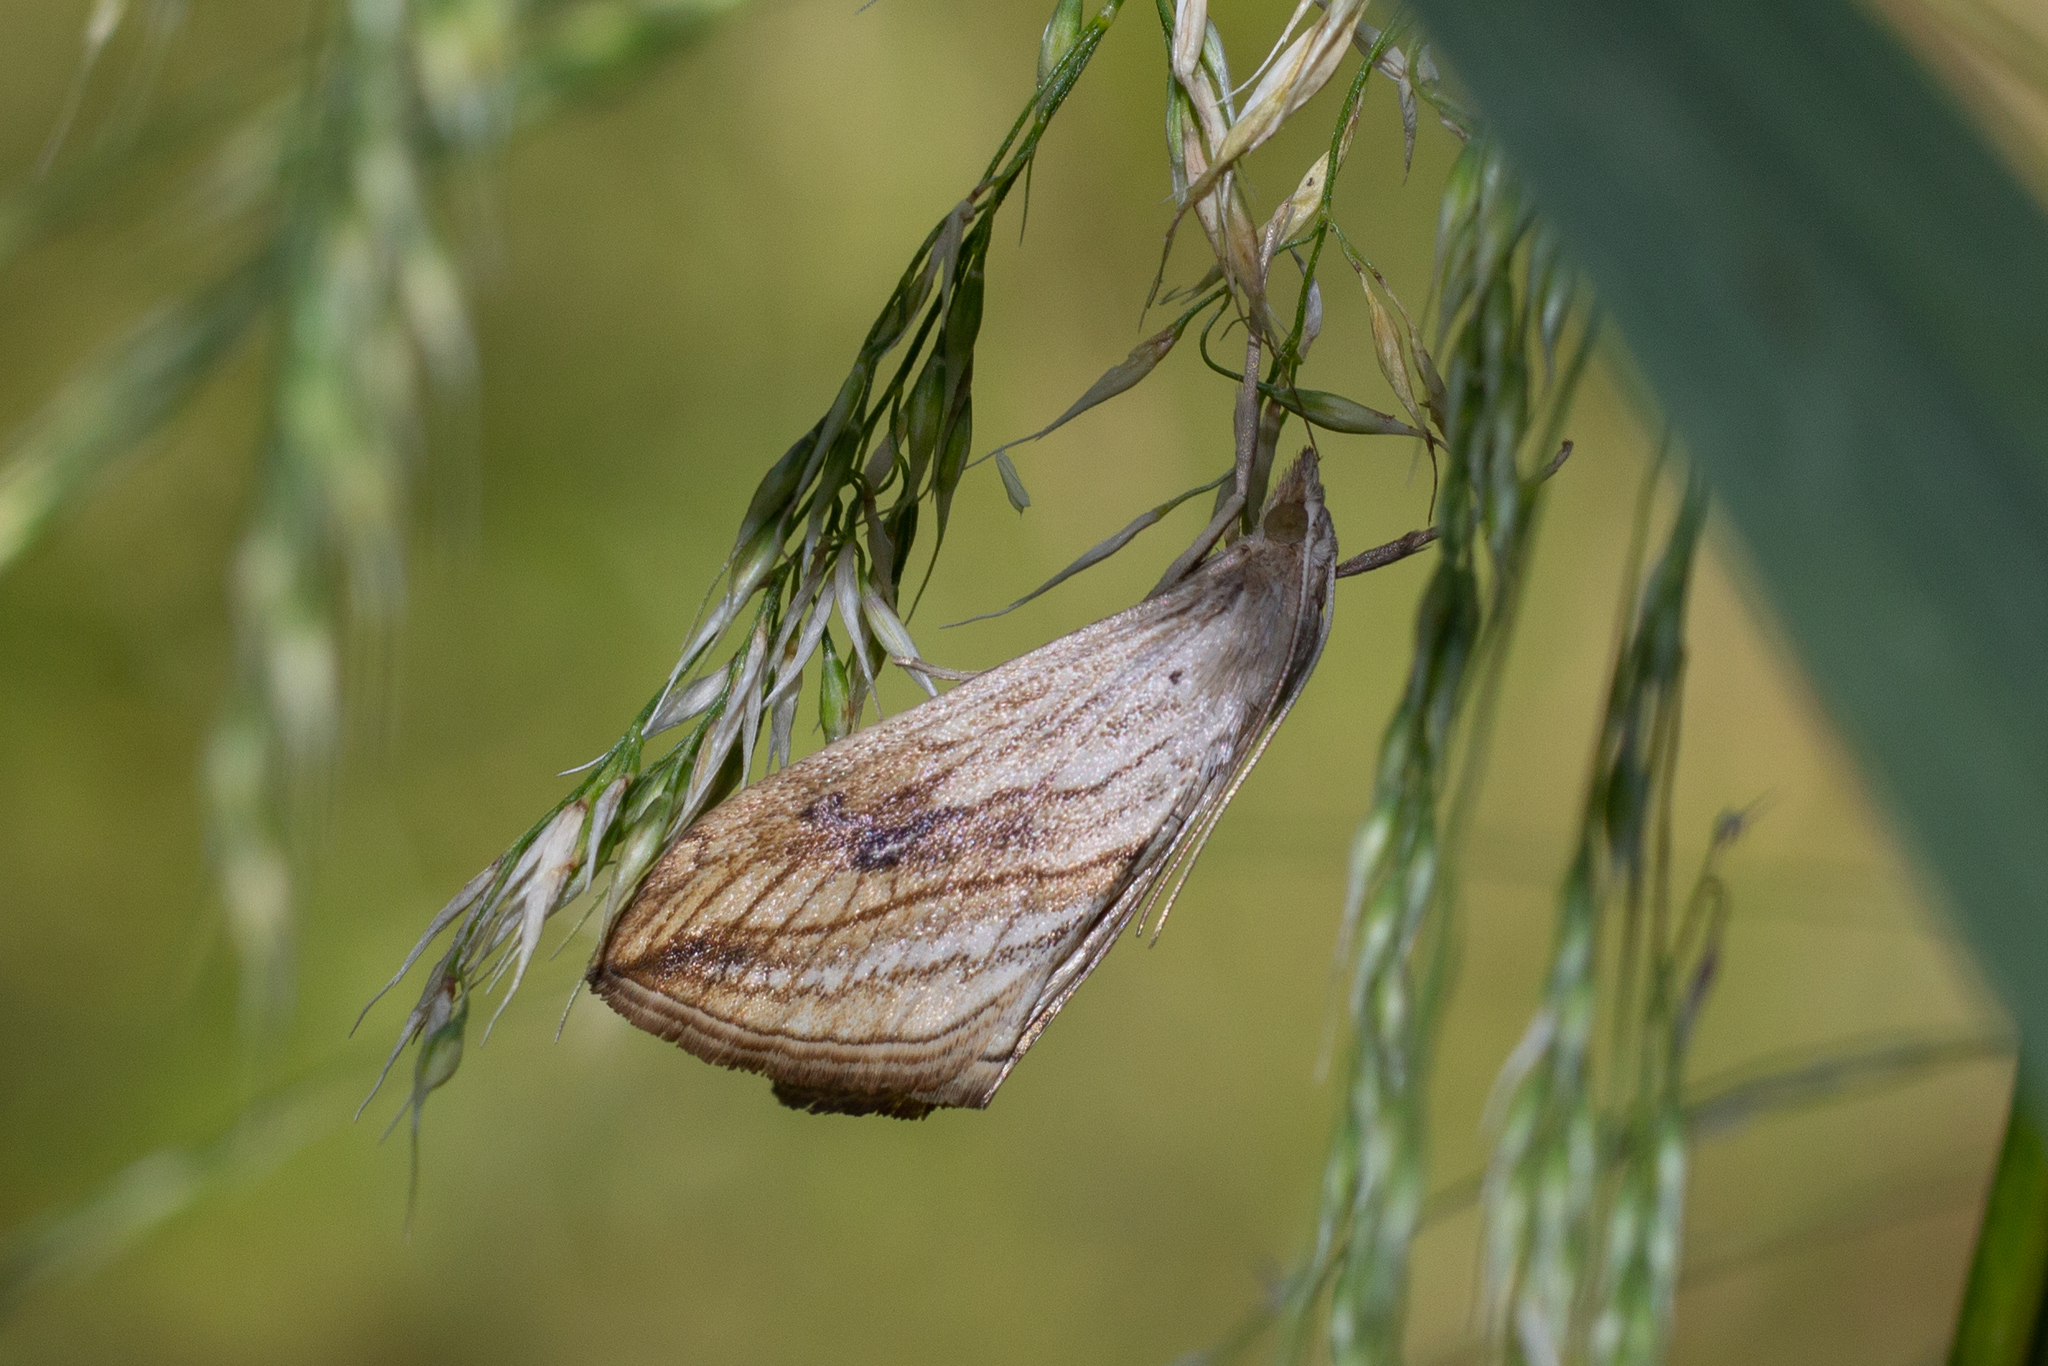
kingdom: Animalia
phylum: Arthropoda
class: Insecta
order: Lepidoptera
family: Crambidae
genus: Evergestis
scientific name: Evergestis forficalis
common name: Garden pebble
